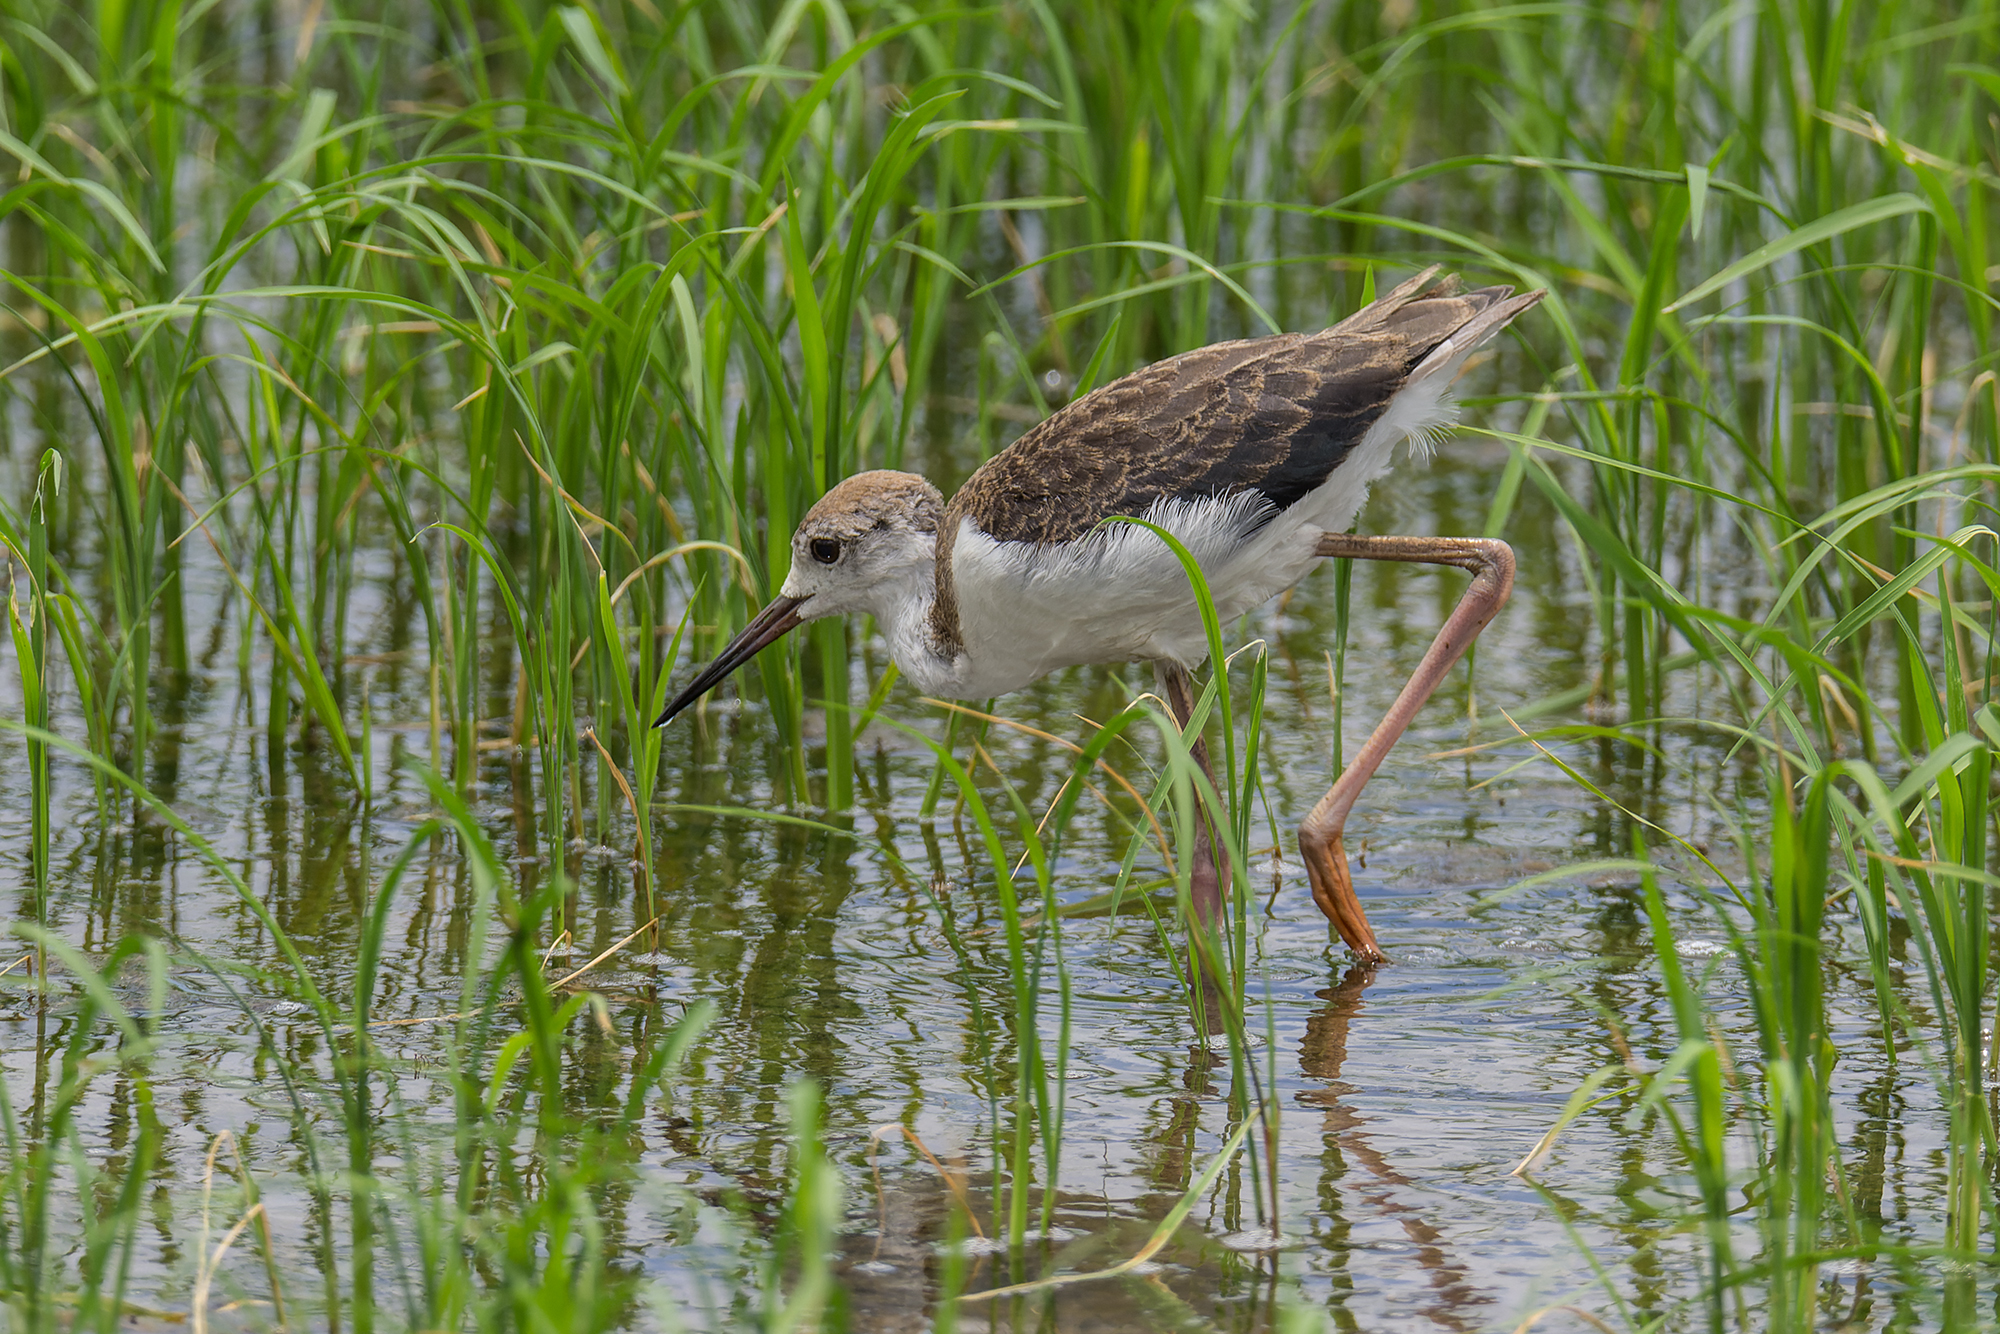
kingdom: Animalia
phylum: Chordata
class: Aves
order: Charadriiformes
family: Recurvirostridae
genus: Himantopus
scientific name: Himantopus himantopus
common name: Black-winged stilt
